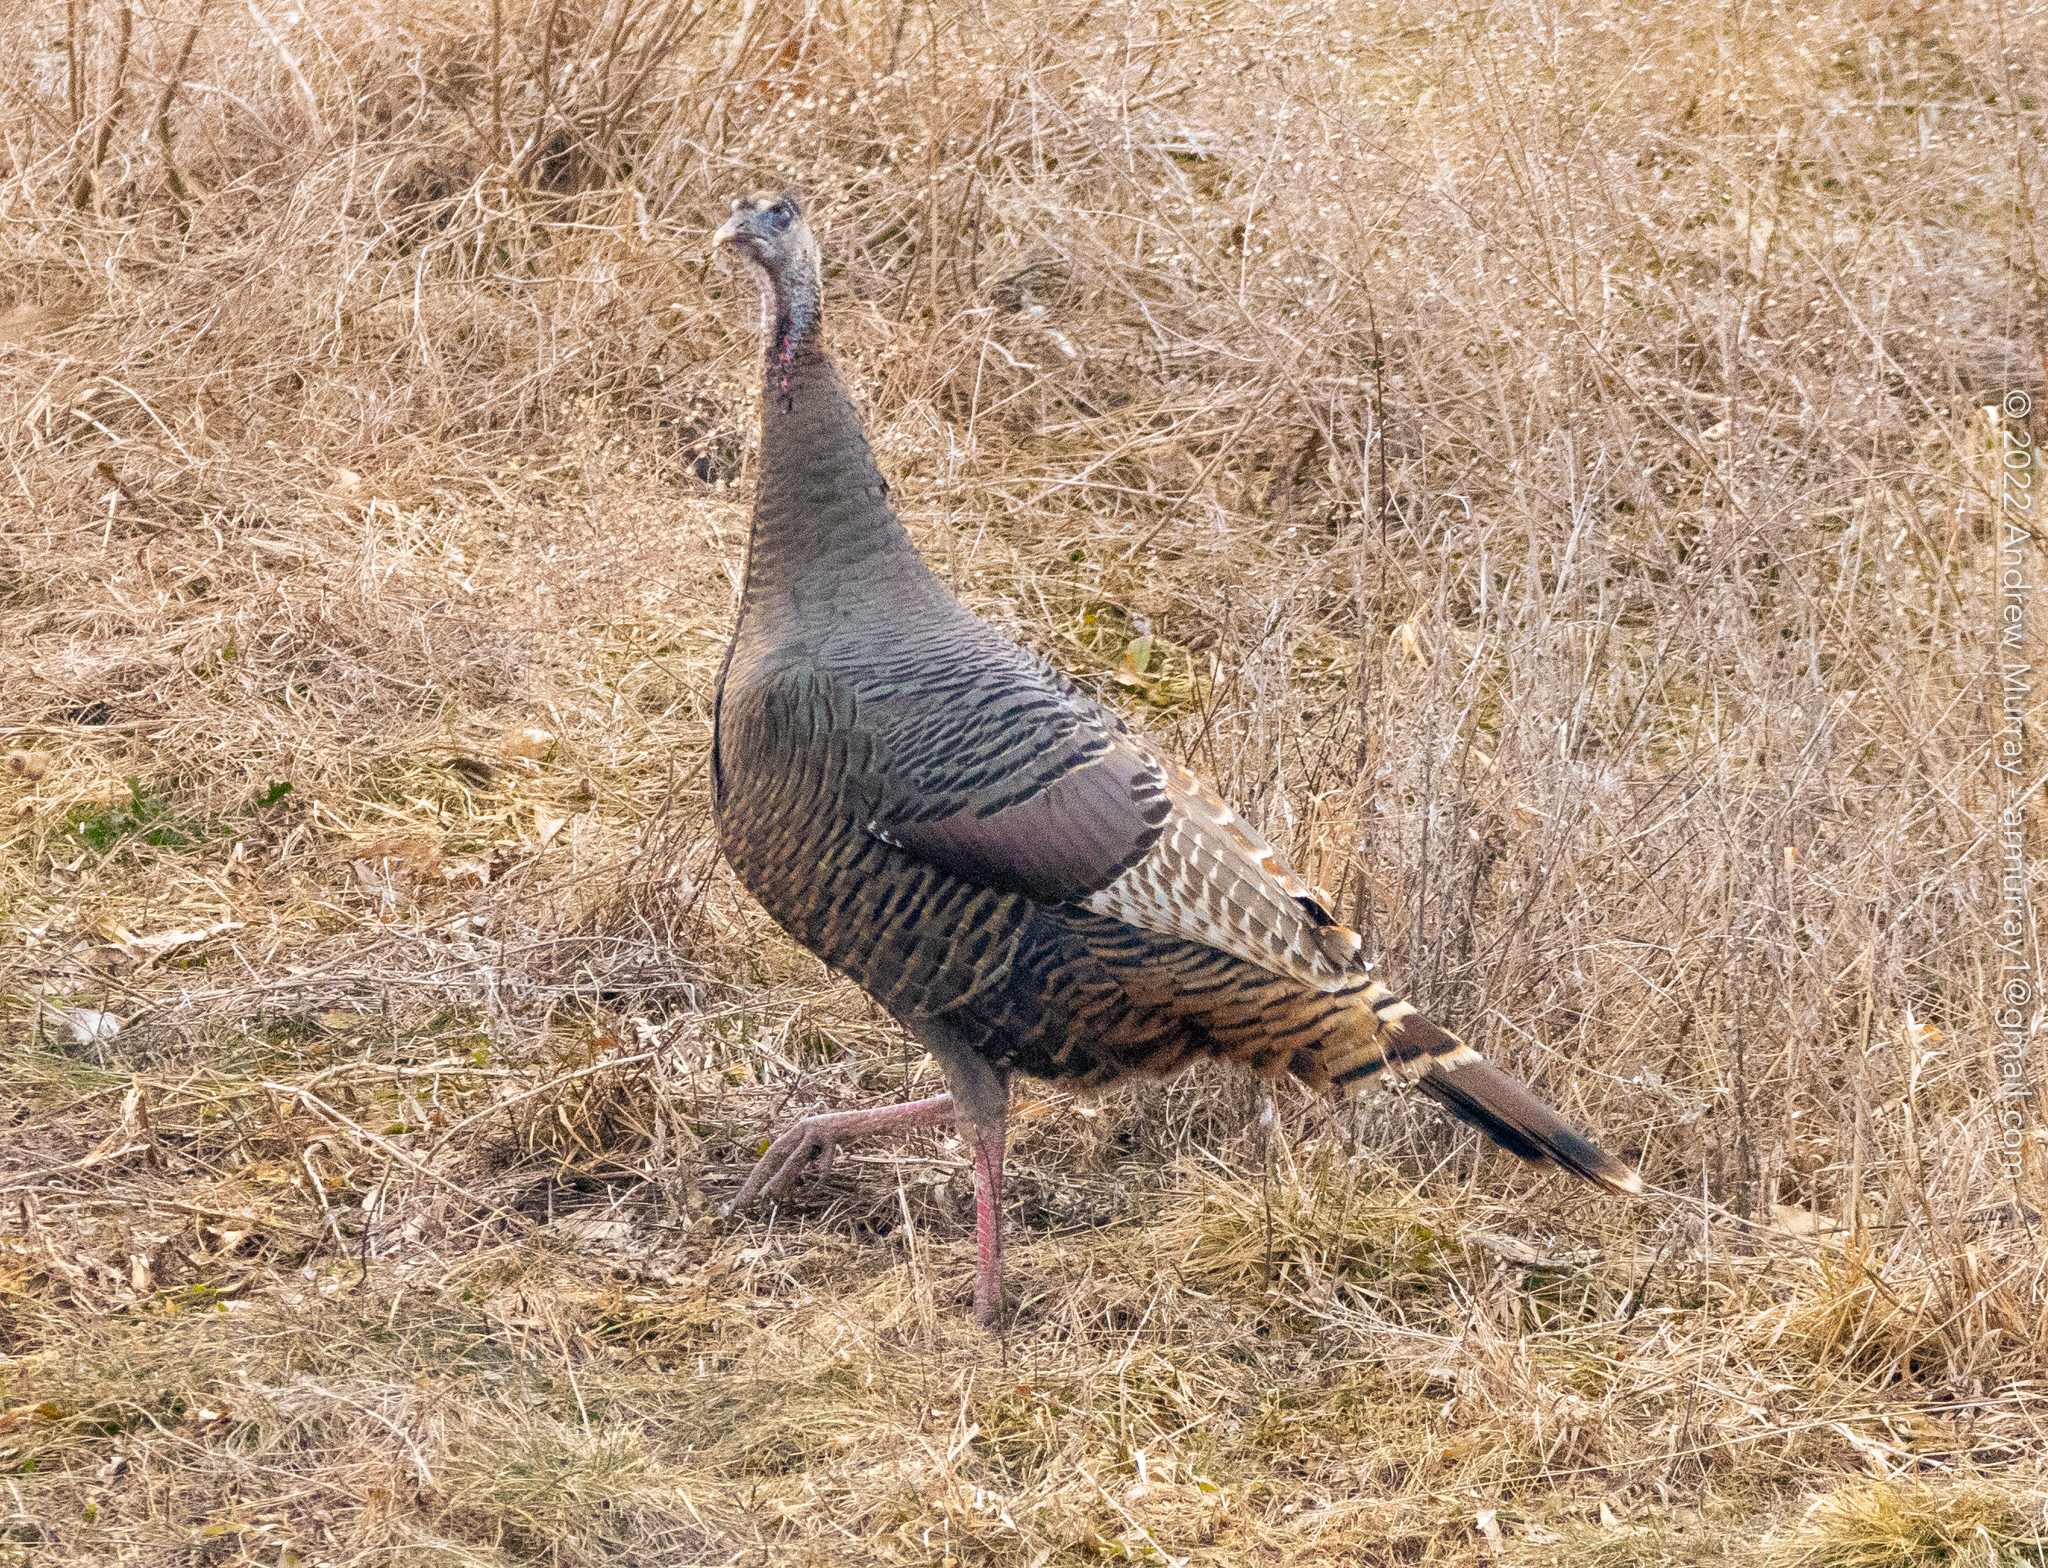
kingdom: Animalia
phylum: Chordata
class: Aves
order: Galliformes
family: Phasianidae
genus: Meleagris
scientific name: Meleagris gallopavo
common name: Wild turkey
